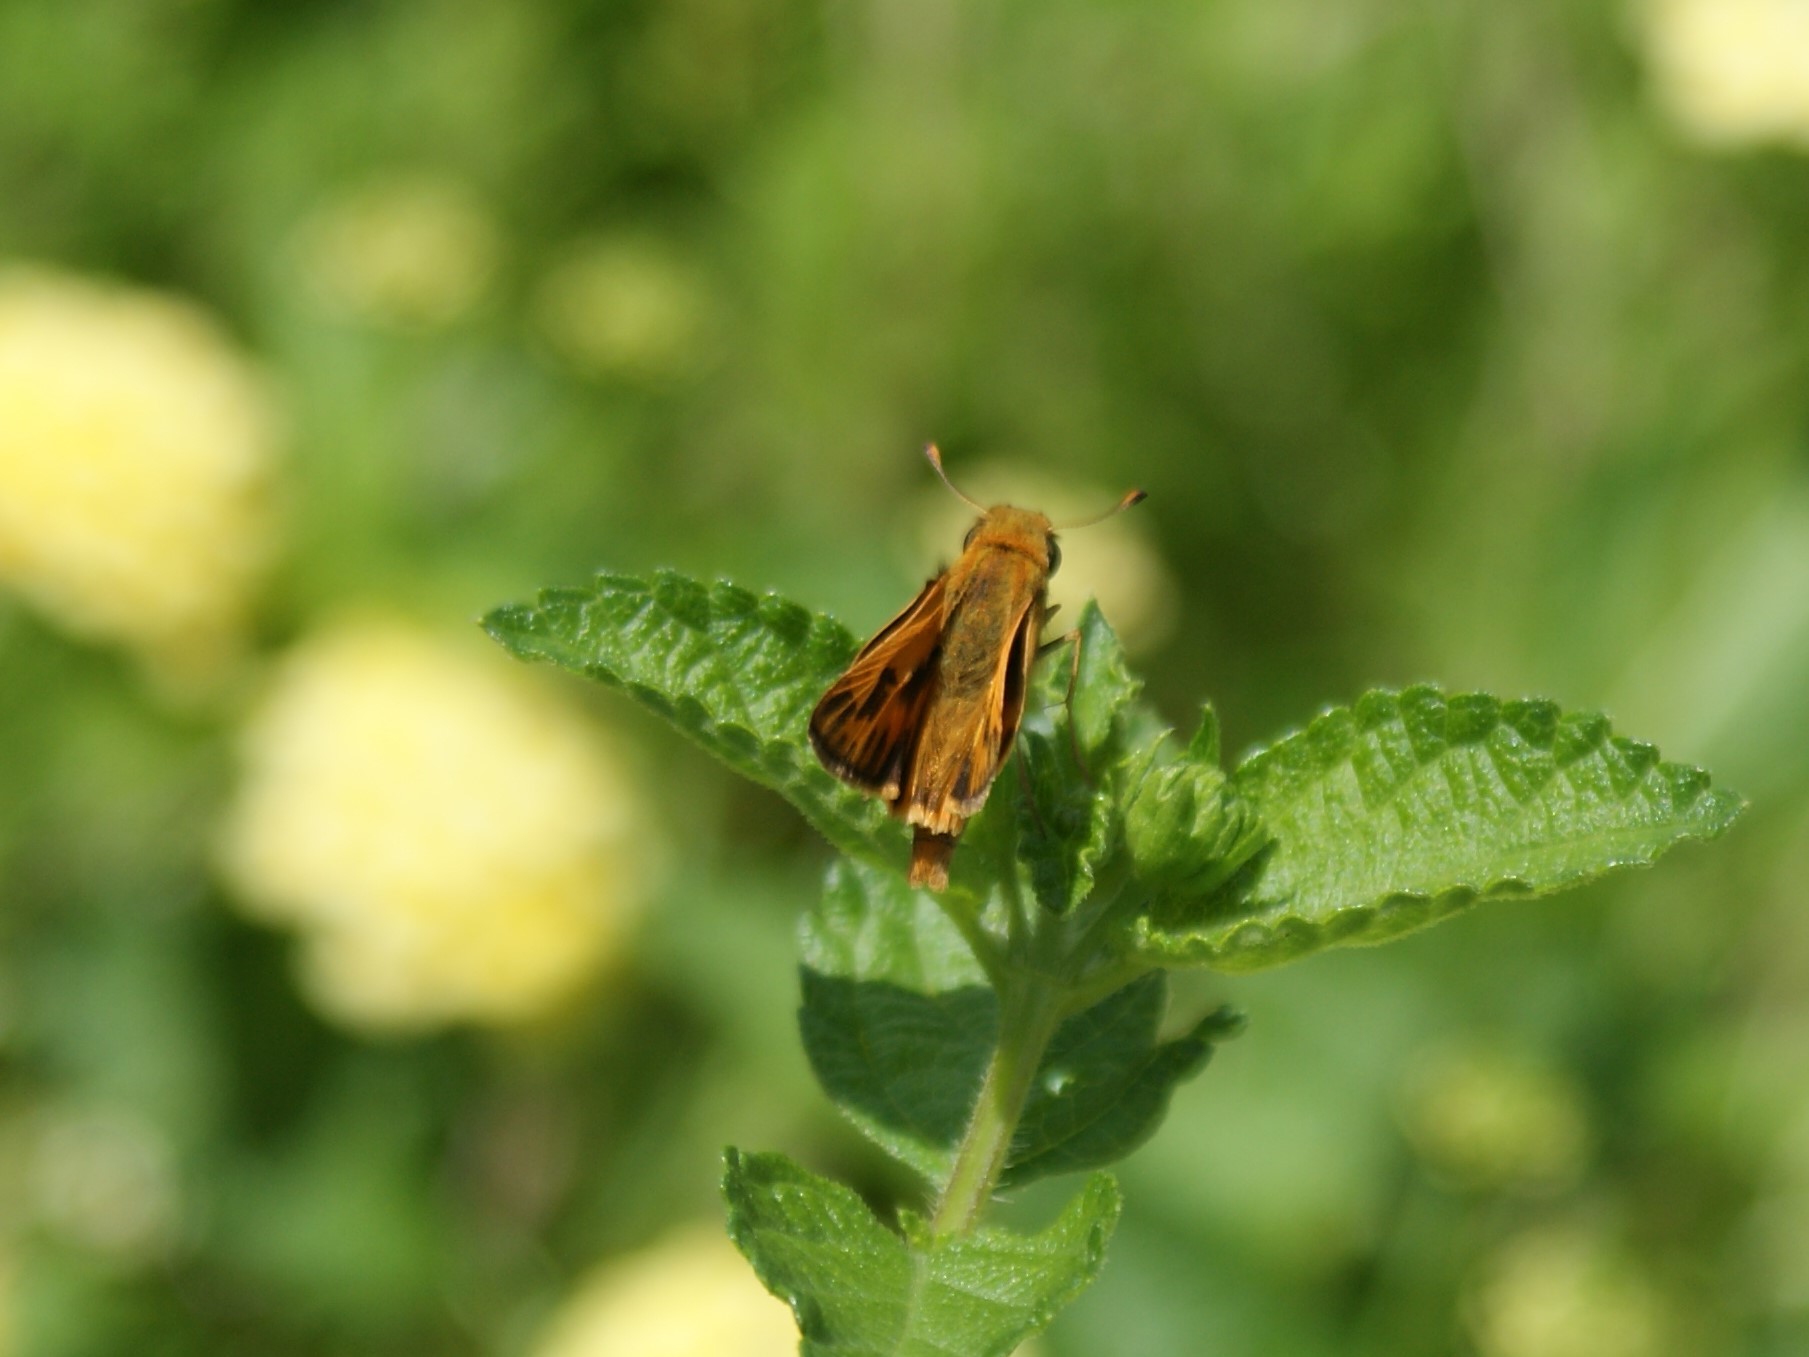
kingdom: Animalia
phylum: Arthropoda
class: Insecta
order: Lepidoptera
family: Hesperiidae
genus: Hylephila
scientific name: Hylephila phyleus
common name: Fiery skipper
